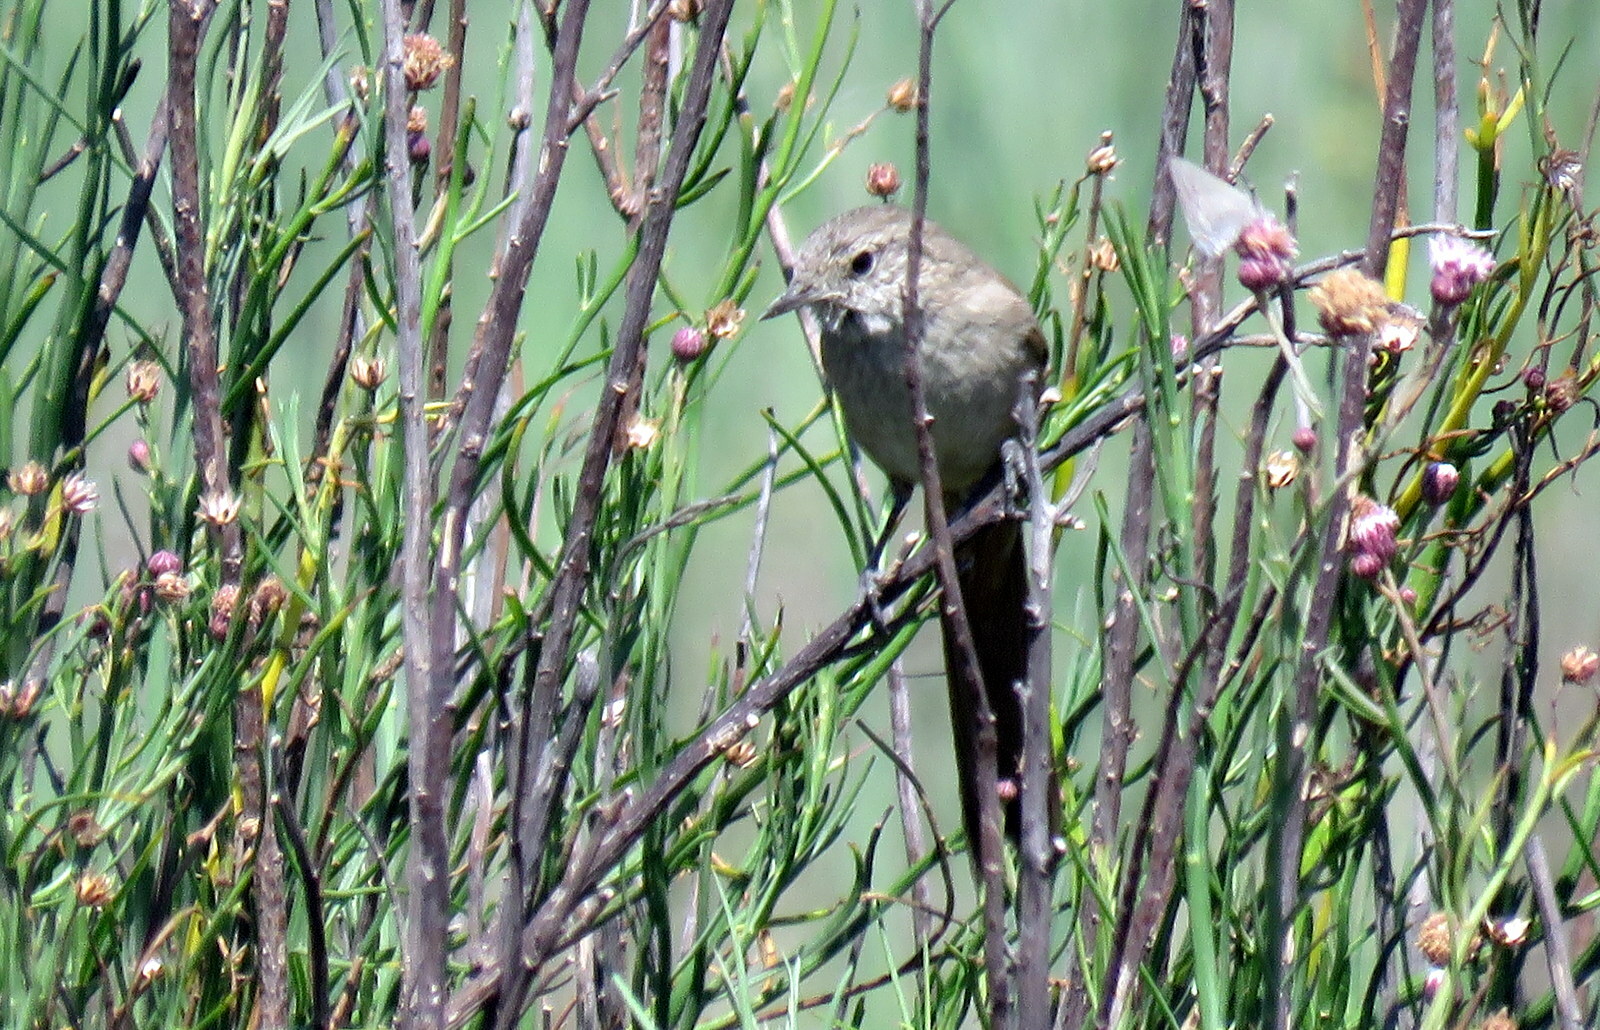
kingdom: Animalia
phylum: Chordata
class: Aves
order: Passeriformes
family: Furnariidae
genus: Asthenes
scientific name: Asthenes pyrrholeuca
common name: Sharp-billed canastero
